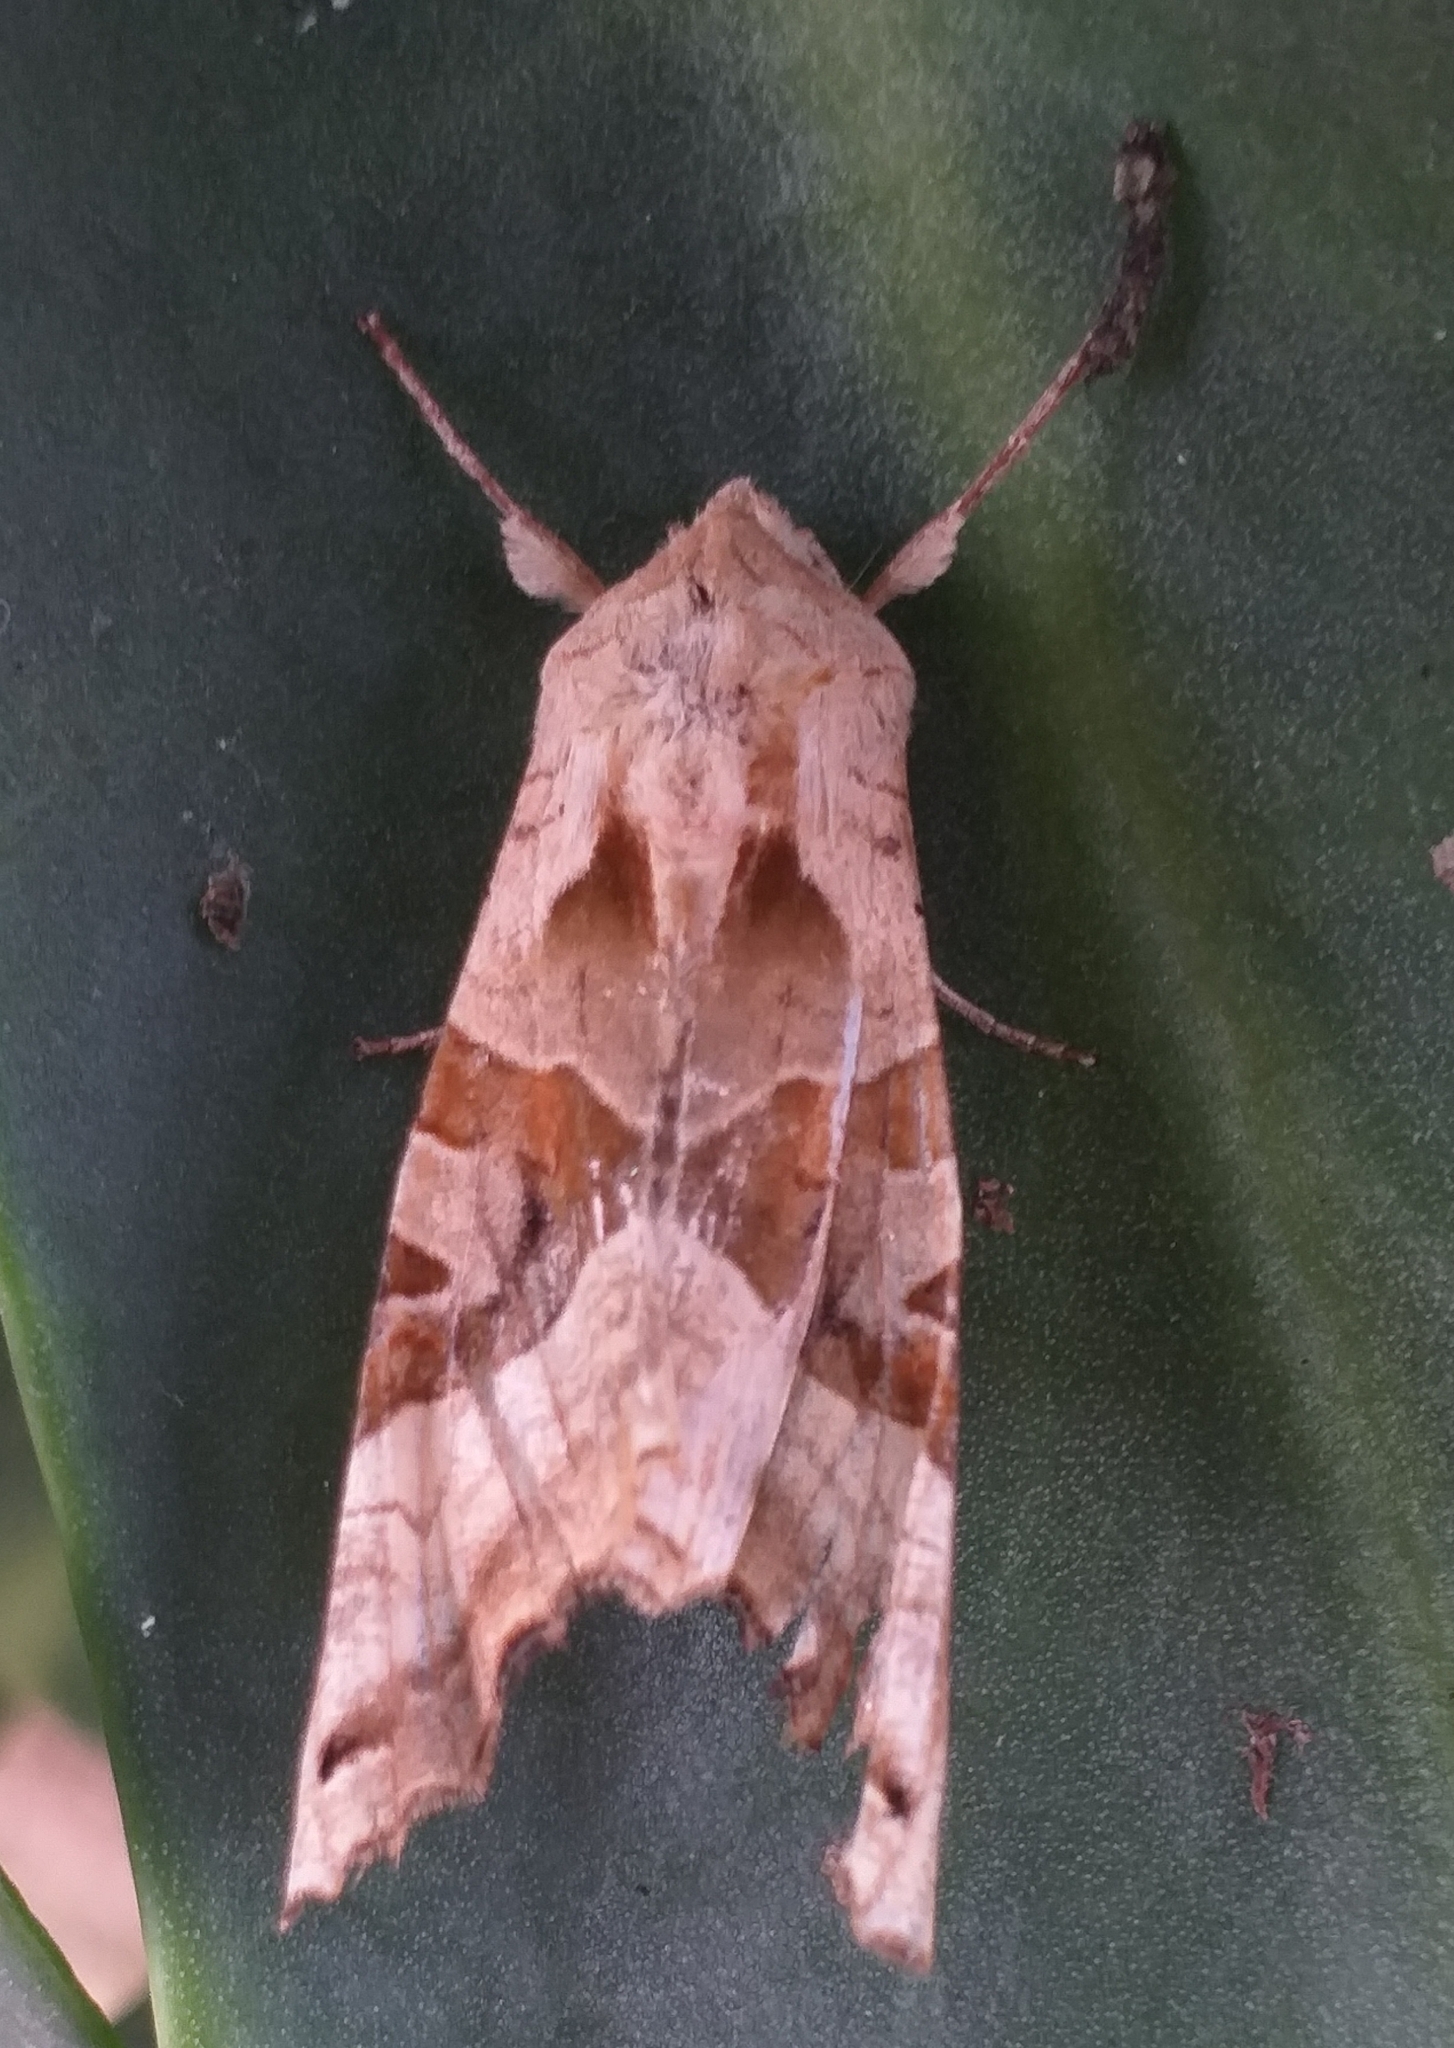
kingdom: Animalia
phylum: Arthropoda
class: Insecta
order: Lepidoptera
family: Noctuidae
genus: Phlogophora
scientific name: Phlogophora meticulosa
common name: Angle shades
